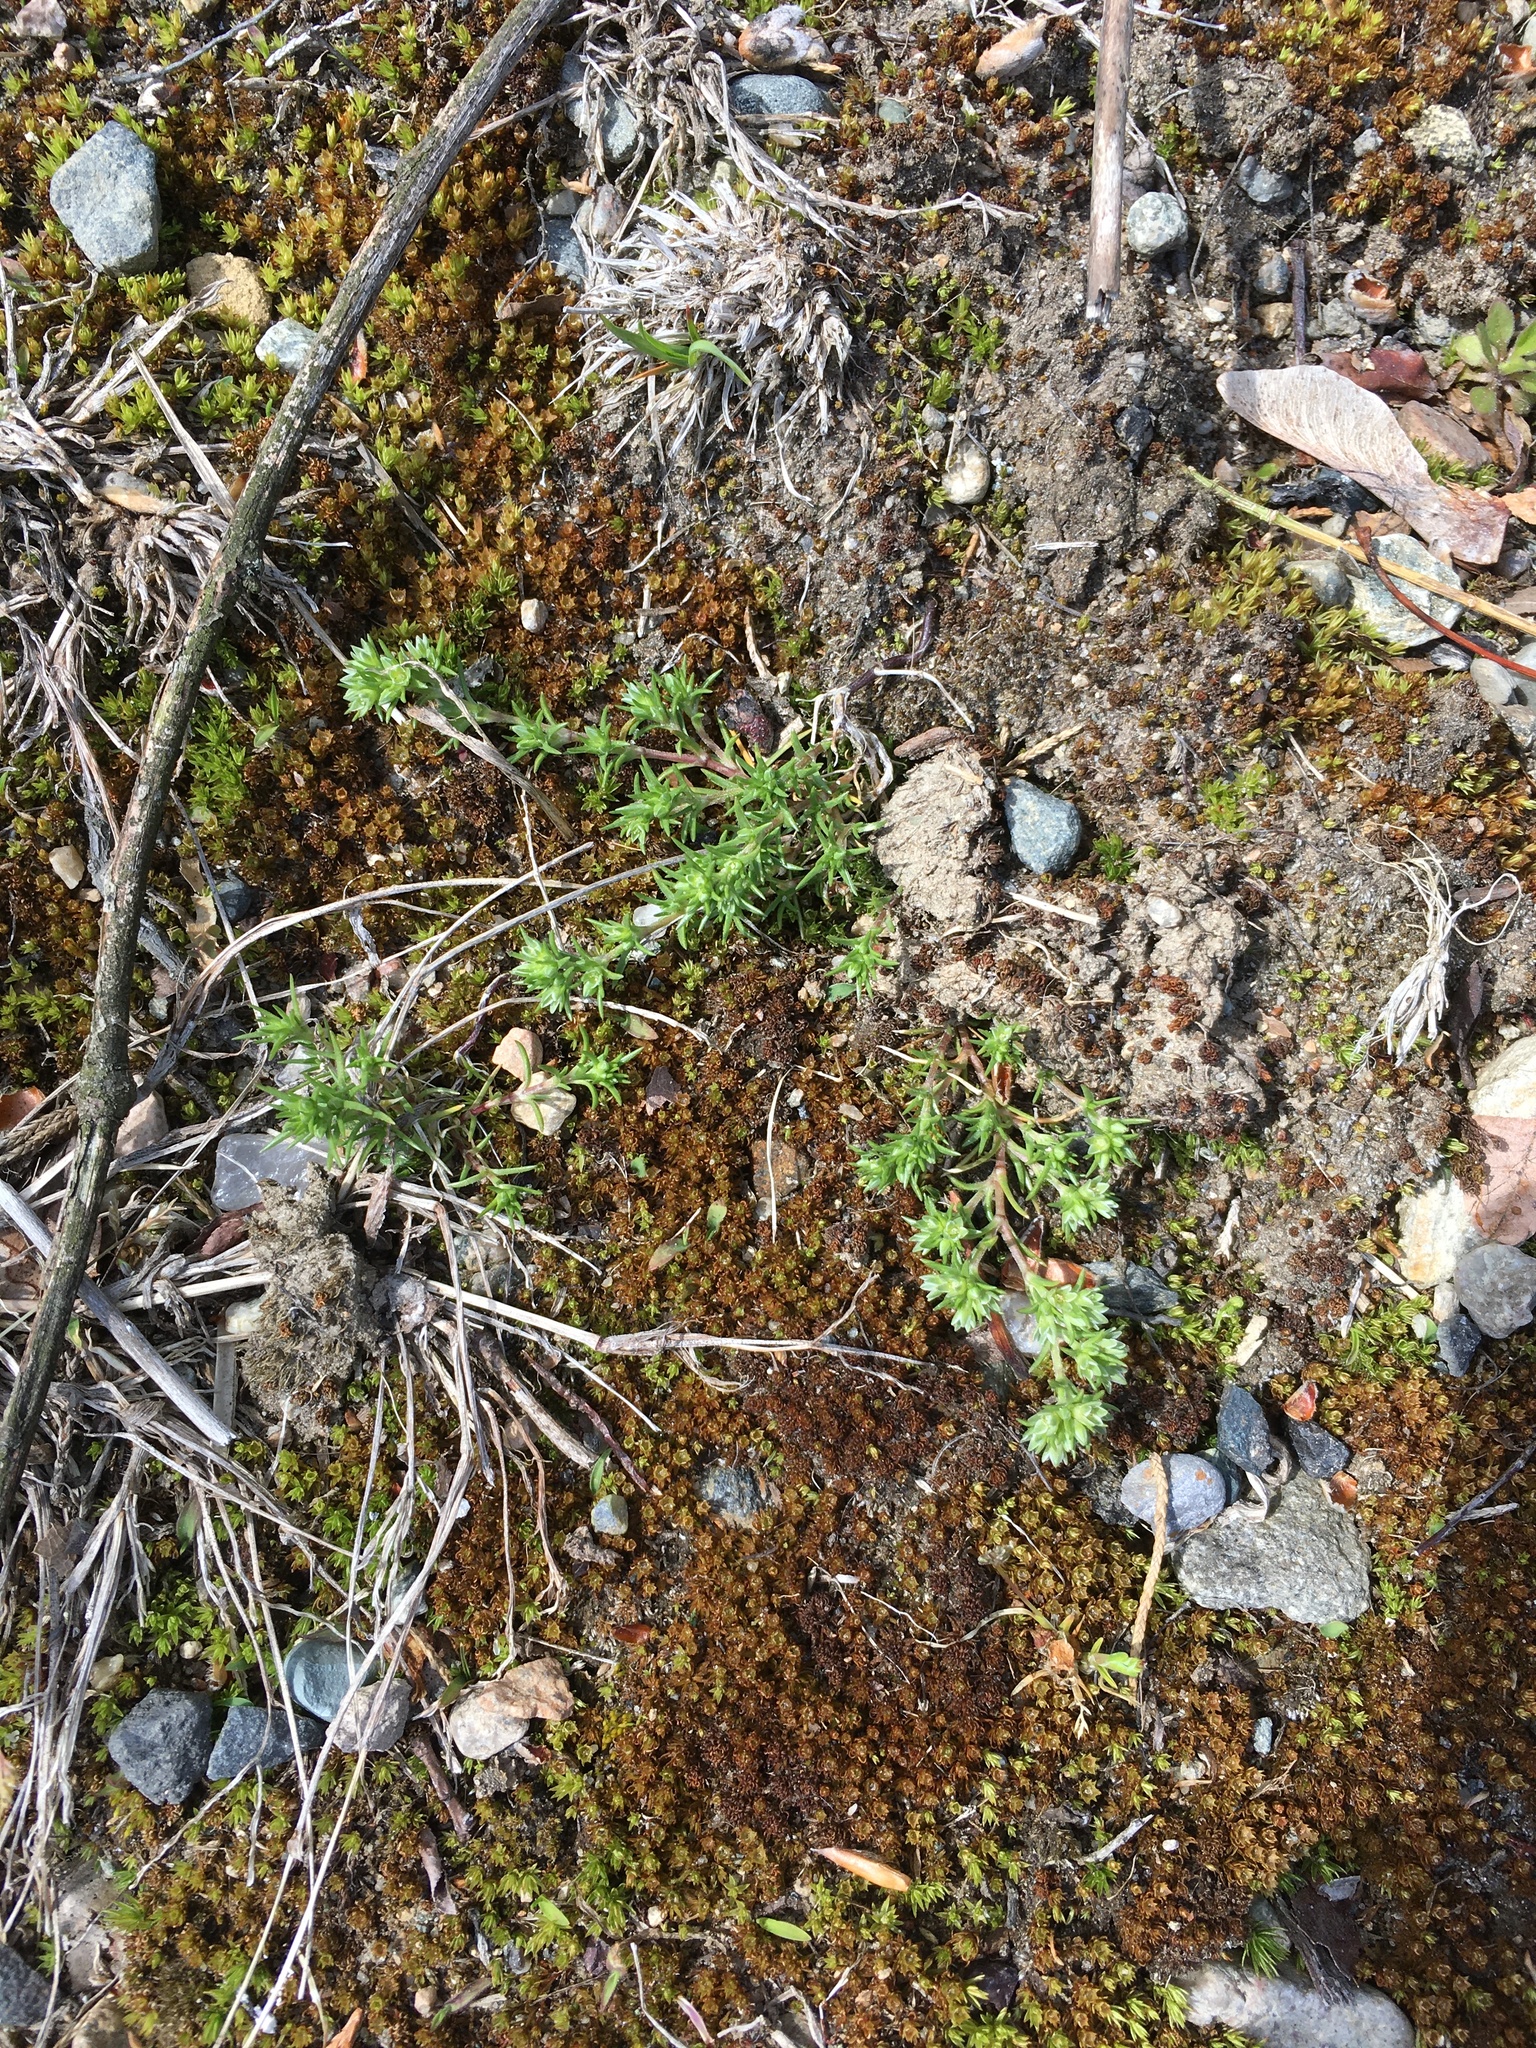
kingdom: Plantae
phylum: Tracheophyta
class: Magnoliopsida
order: Caryophyllales
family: Caryophyllaceae
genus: Scleranthus
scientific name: Scleranthus annuus
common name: Annual knawel
